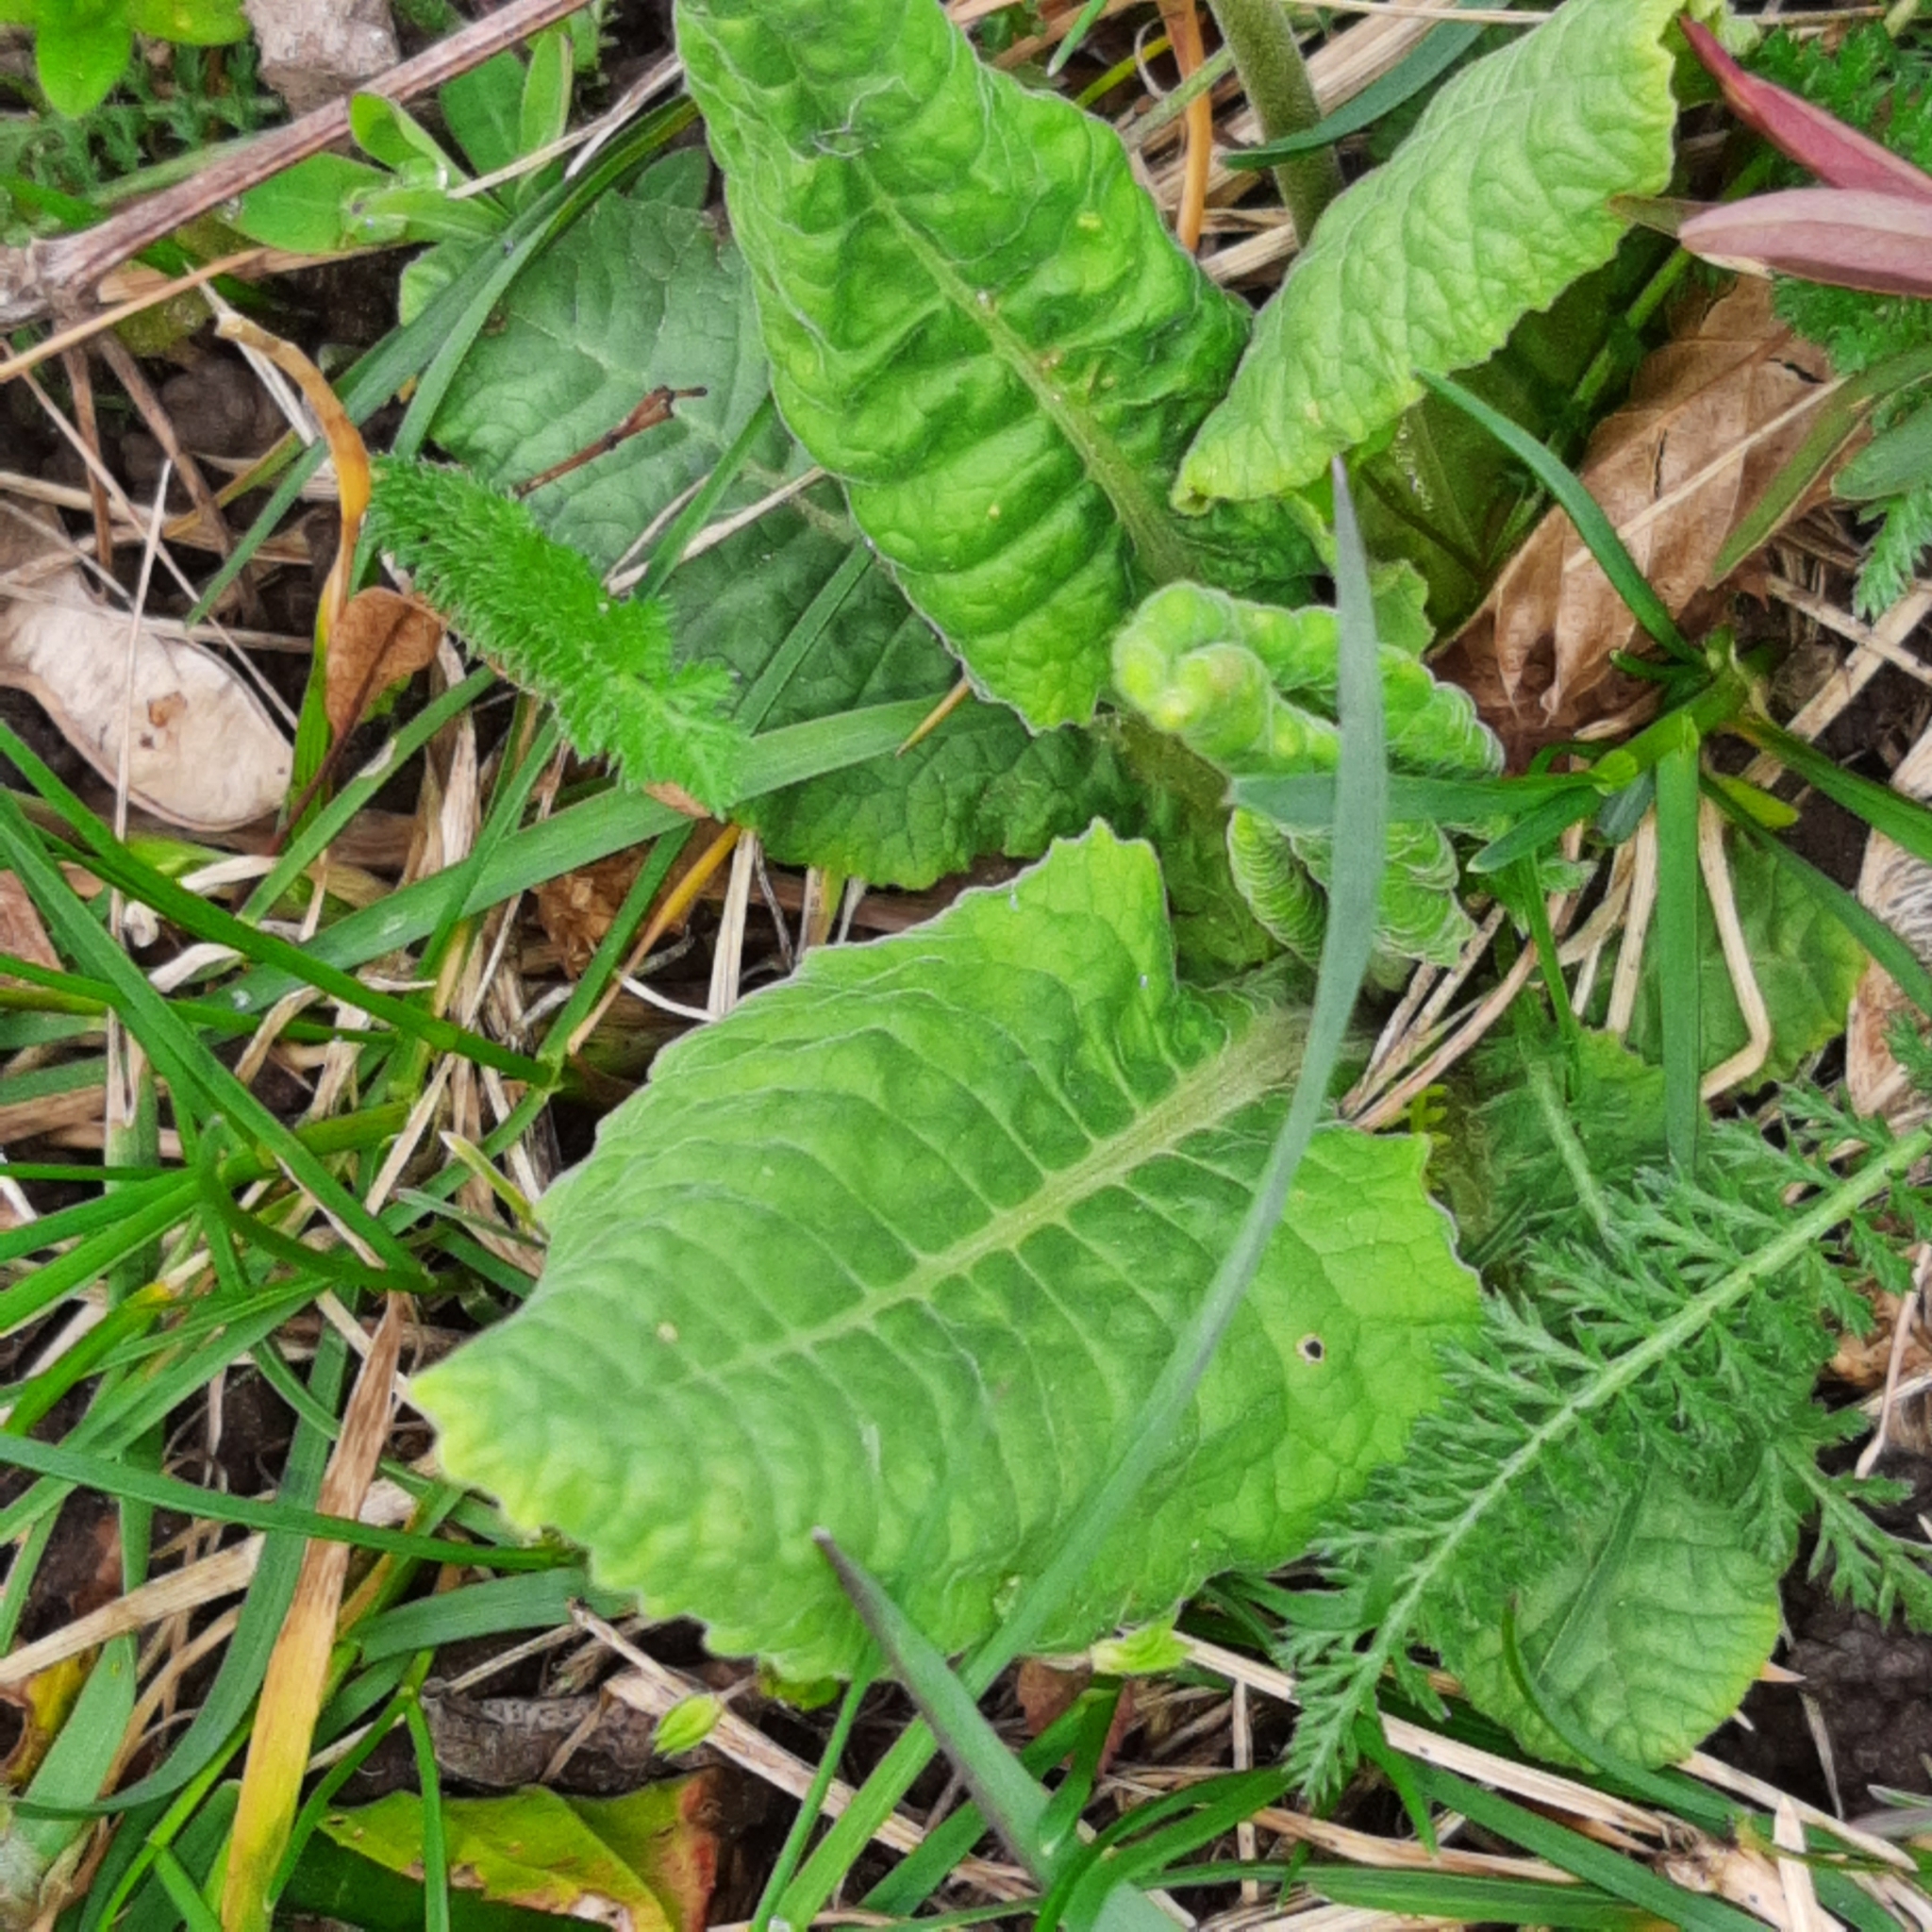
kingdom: Plantae
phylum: Tracheophyta
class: Magnoliopsida
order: Ericales
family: Primulaceae
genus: Primula
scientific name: Primula veris
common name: Cowslip
